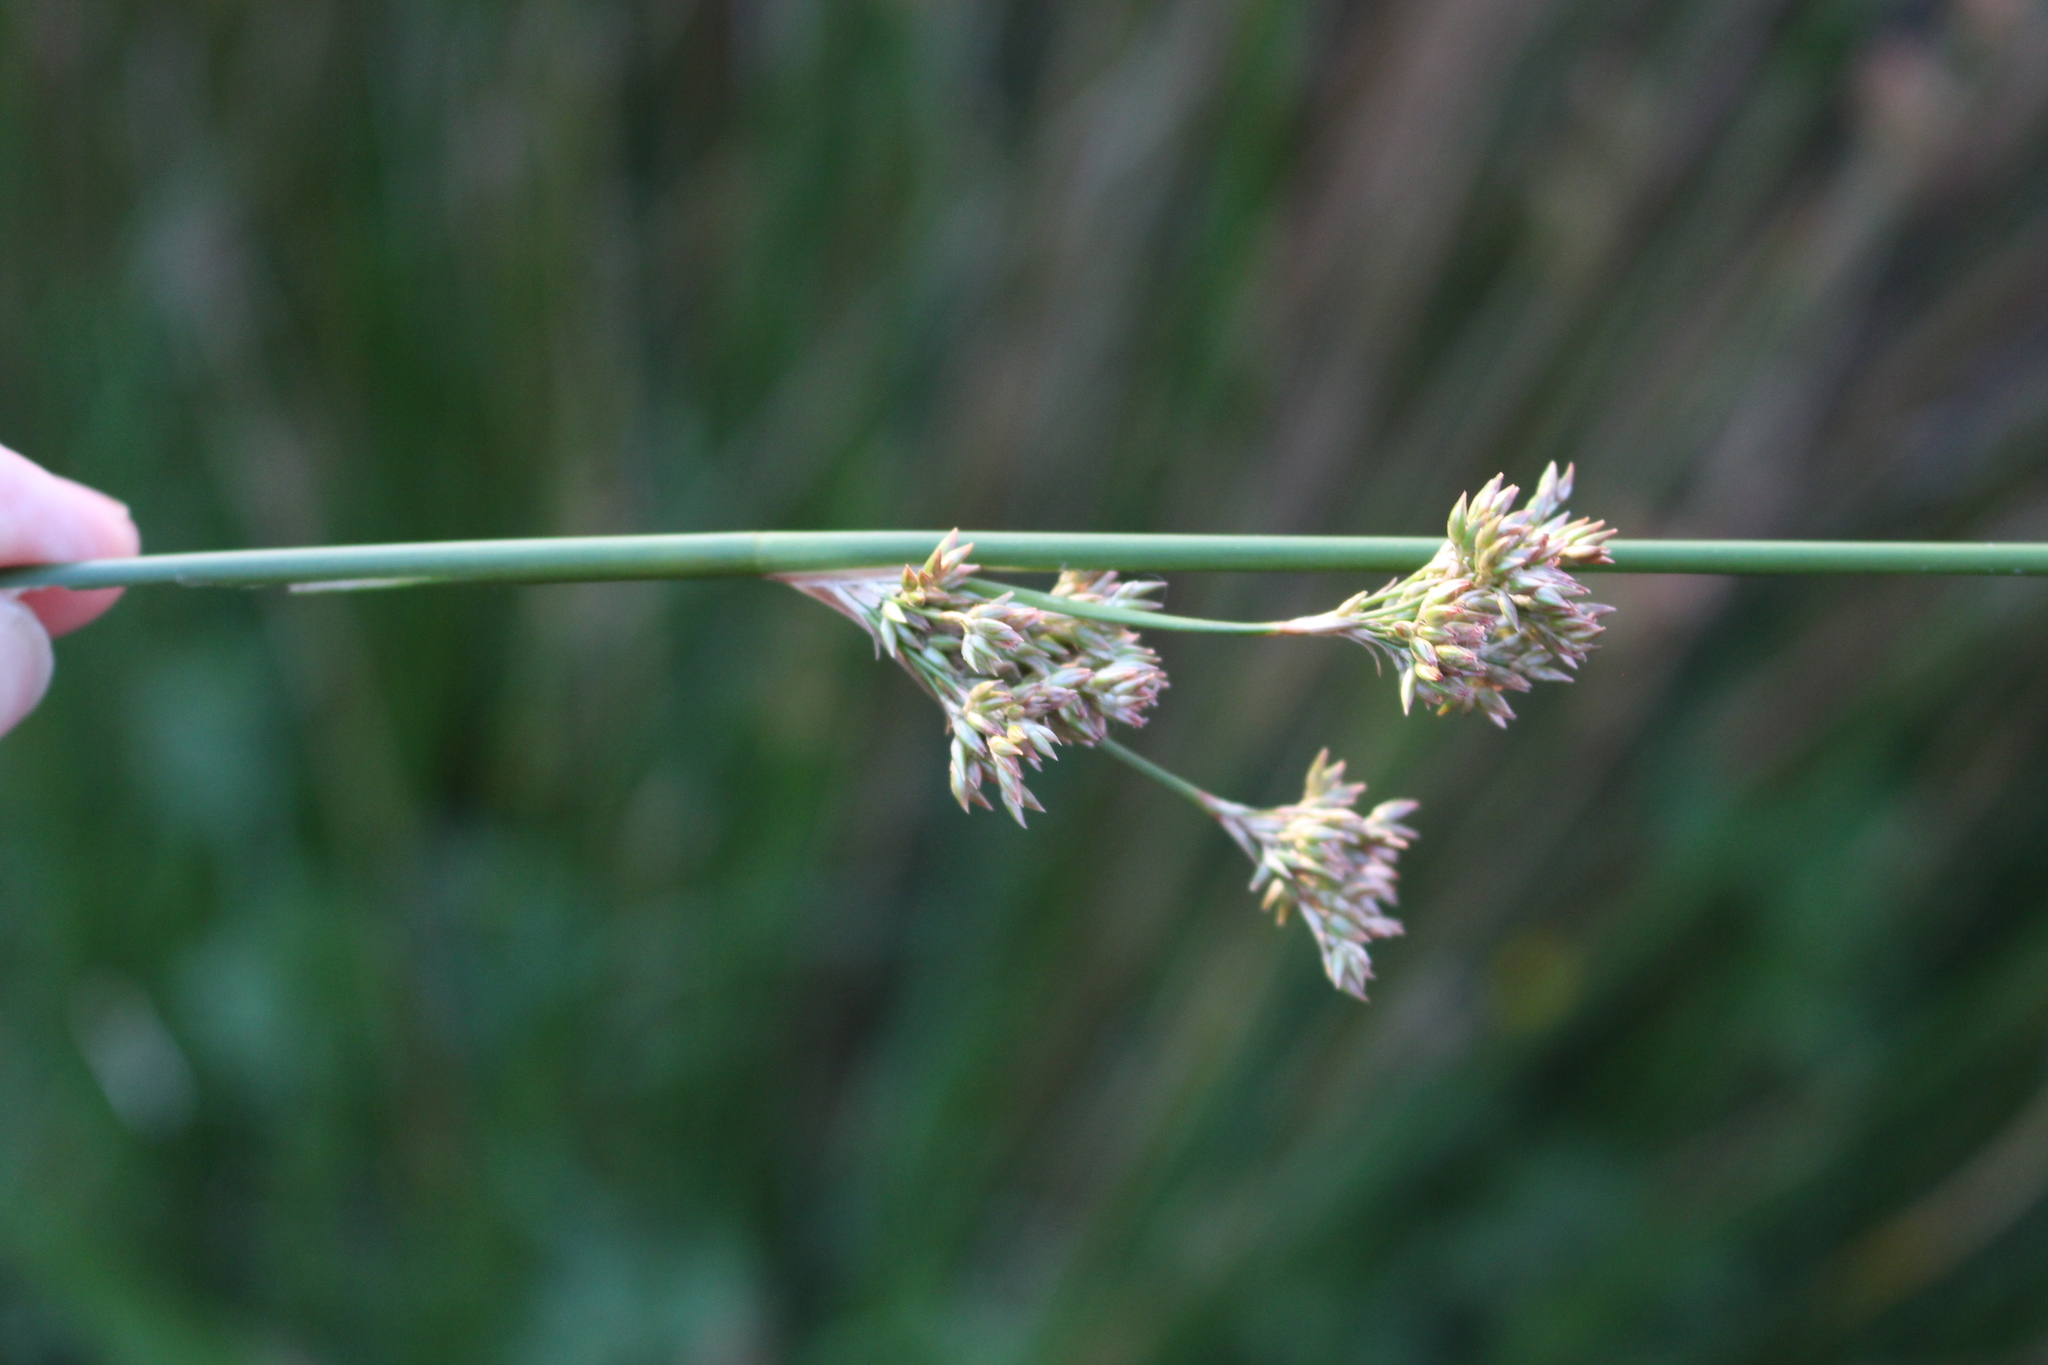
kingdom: Plantae
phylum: Tracheophyta
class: Liliopsida
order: Poales
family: Juncaceae
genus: Juncus
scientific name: Juncus edgariae
